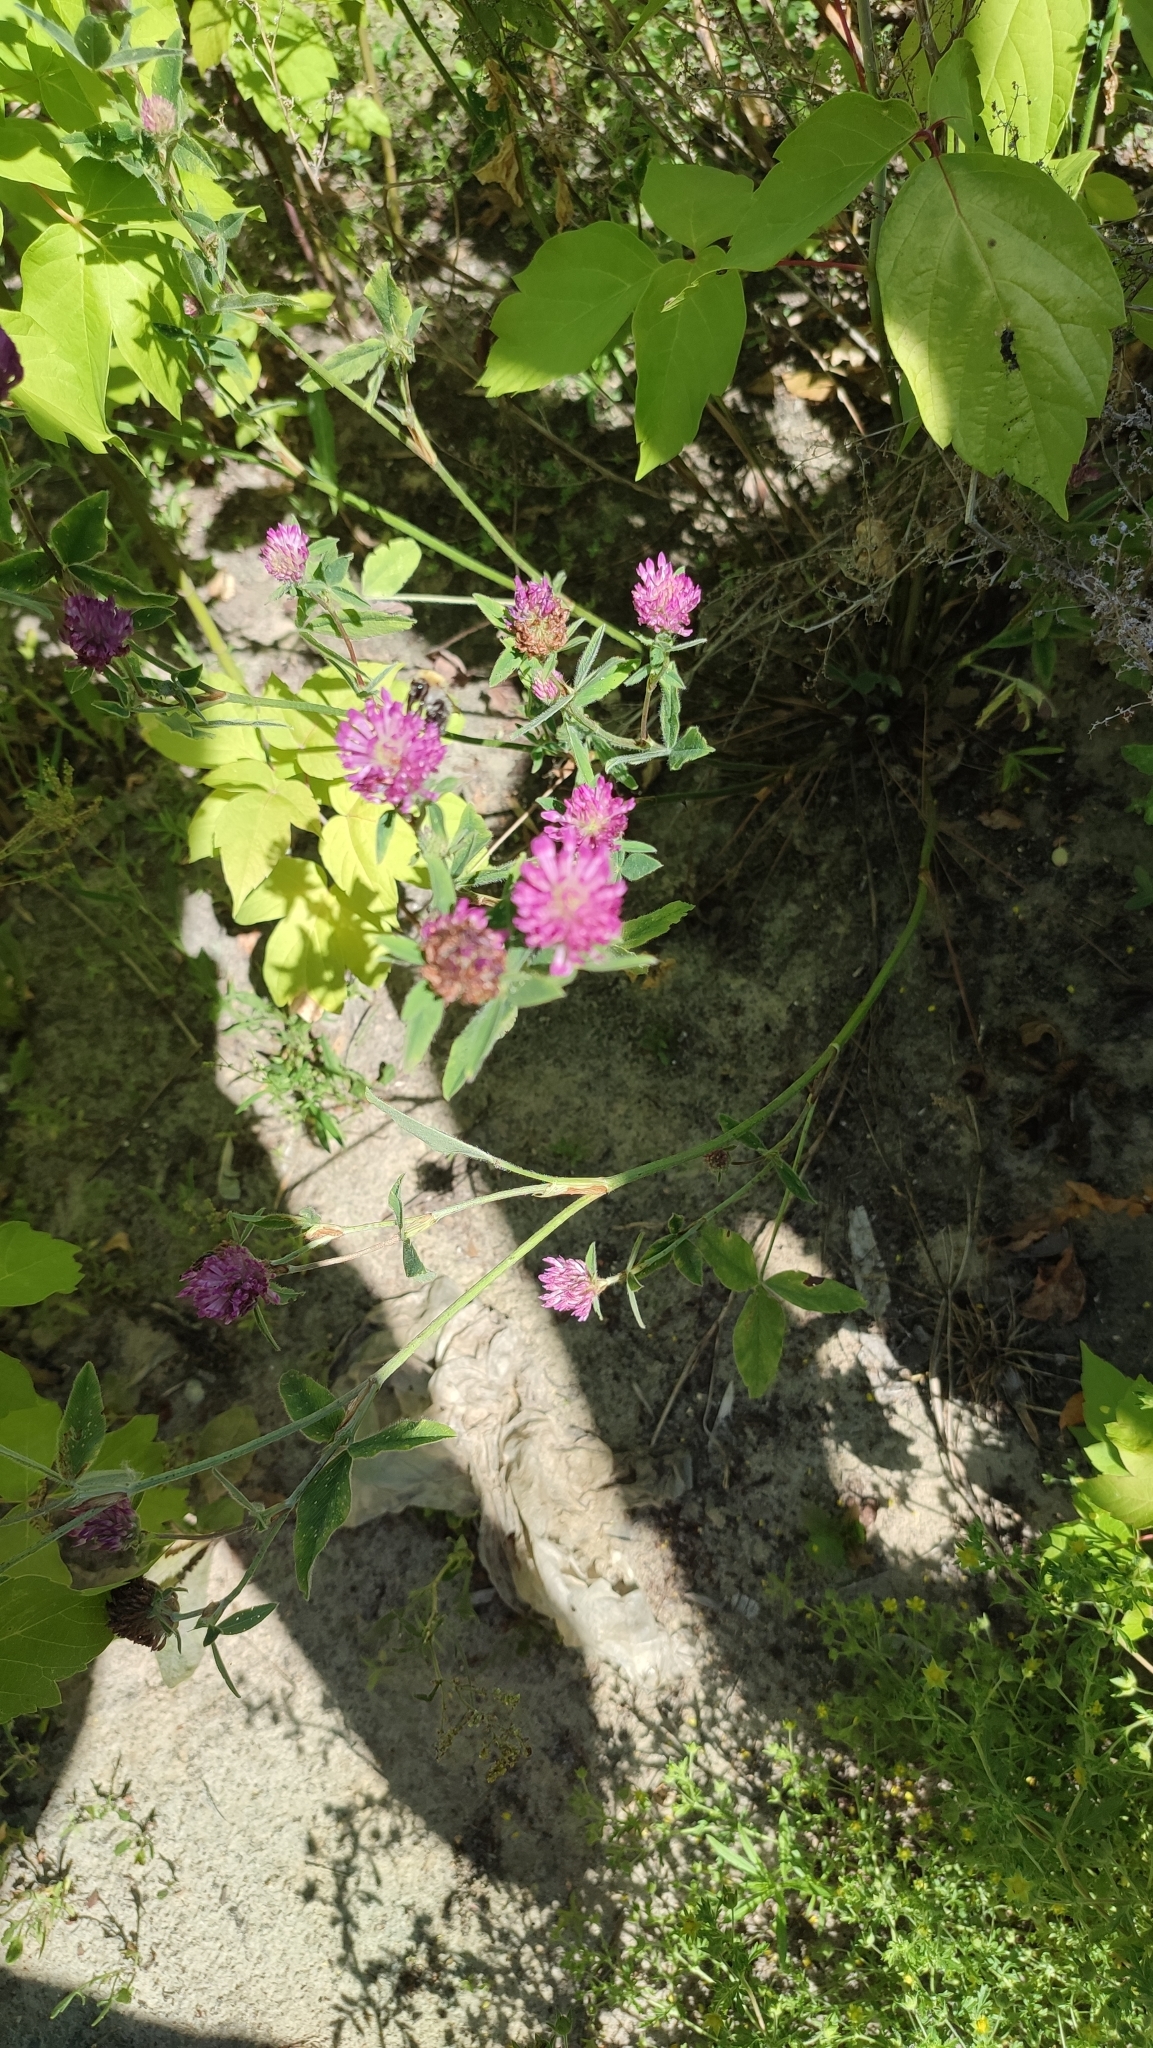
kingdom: Plantae
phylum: Tracheophyta
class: Magnoliopsida
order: Fabales
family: Fabaceae
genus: Trifolium
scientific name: Trifolium medium
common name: Zigzag clover
